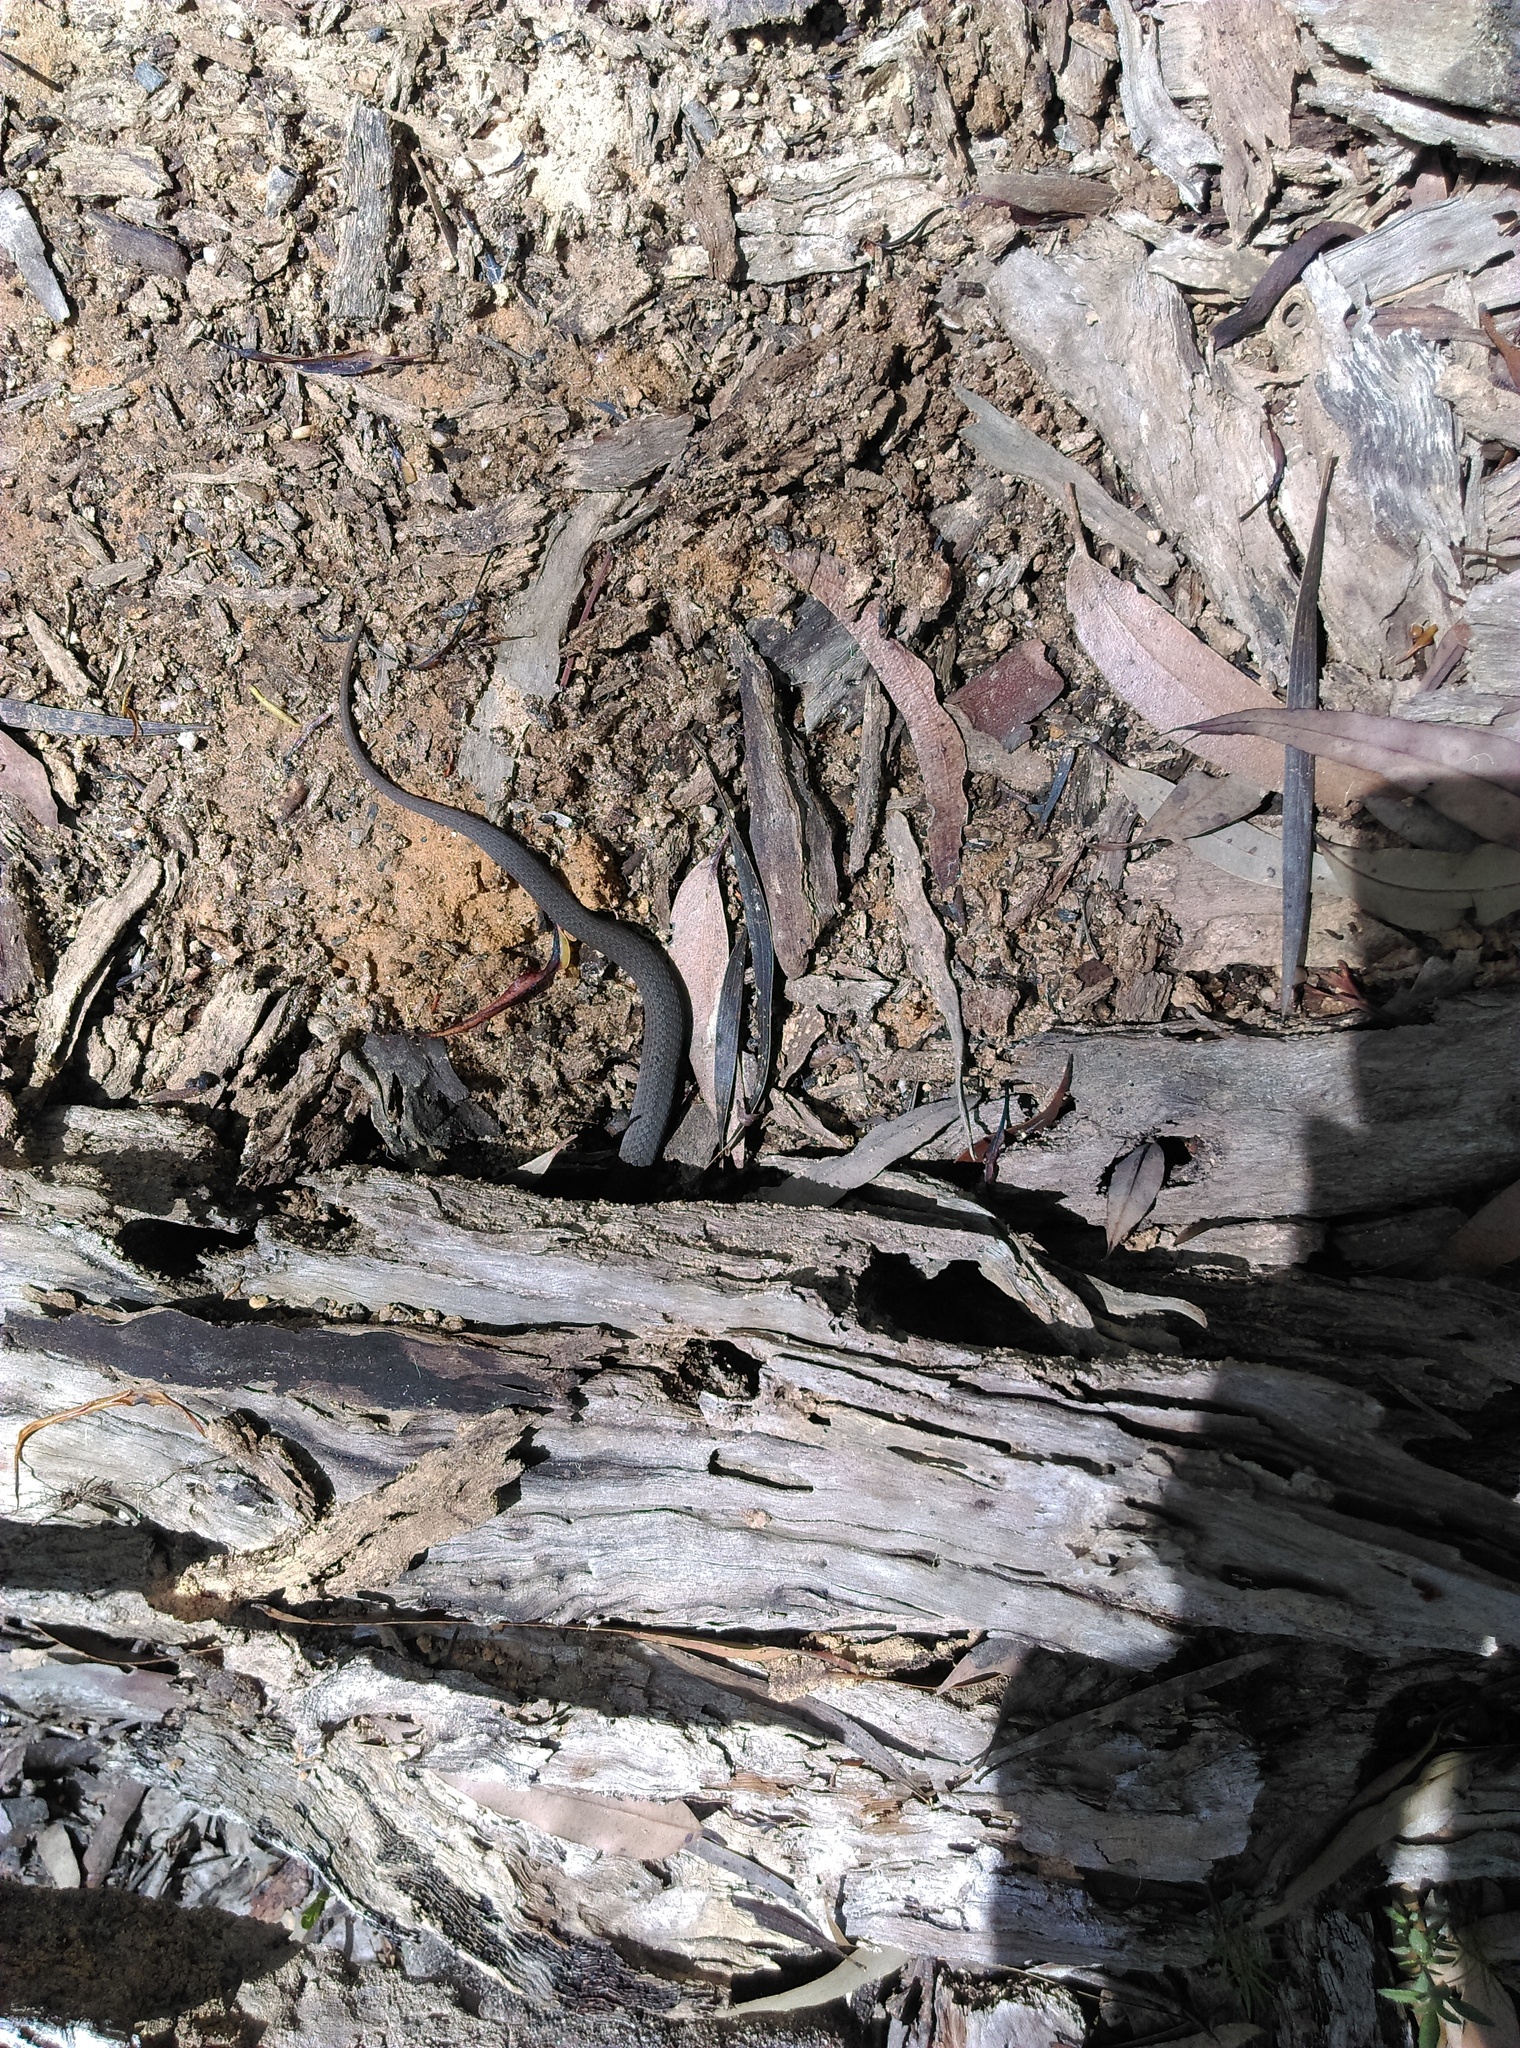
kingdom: Animalia
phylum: Chordata
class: Squamata
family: Elapidae
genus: Drysdalia
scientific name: Drysdalia rhodogaster
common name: Mustard-bellied snake
